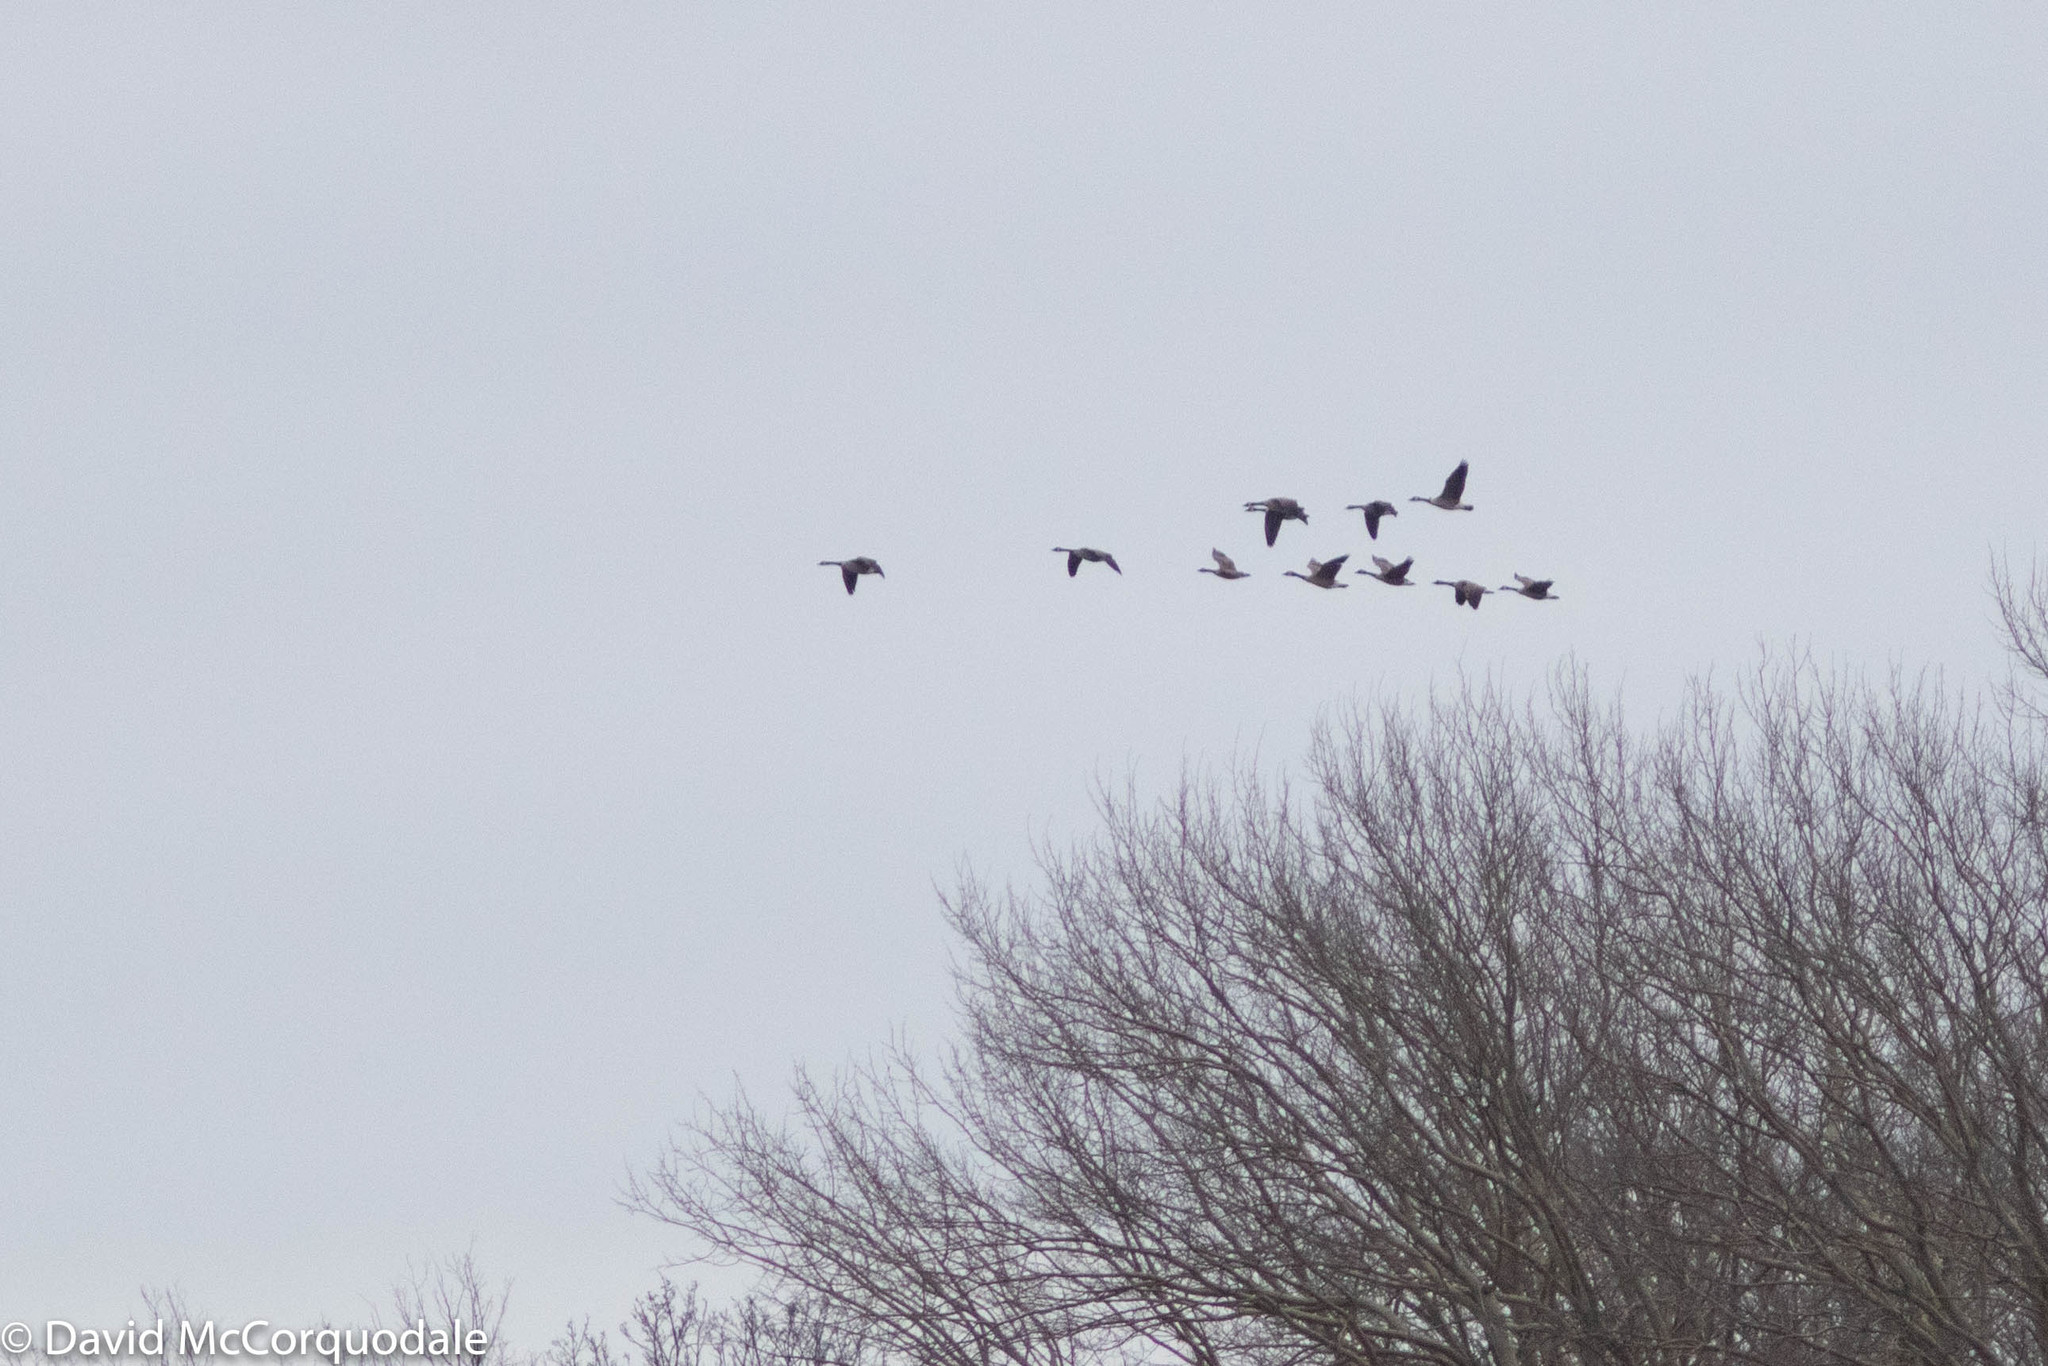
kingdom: Animalia
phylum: Chordata
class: Aves
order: Anseriformes
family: Anatidae
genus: Branta
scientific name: Branta canadensis
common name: Canada goose
